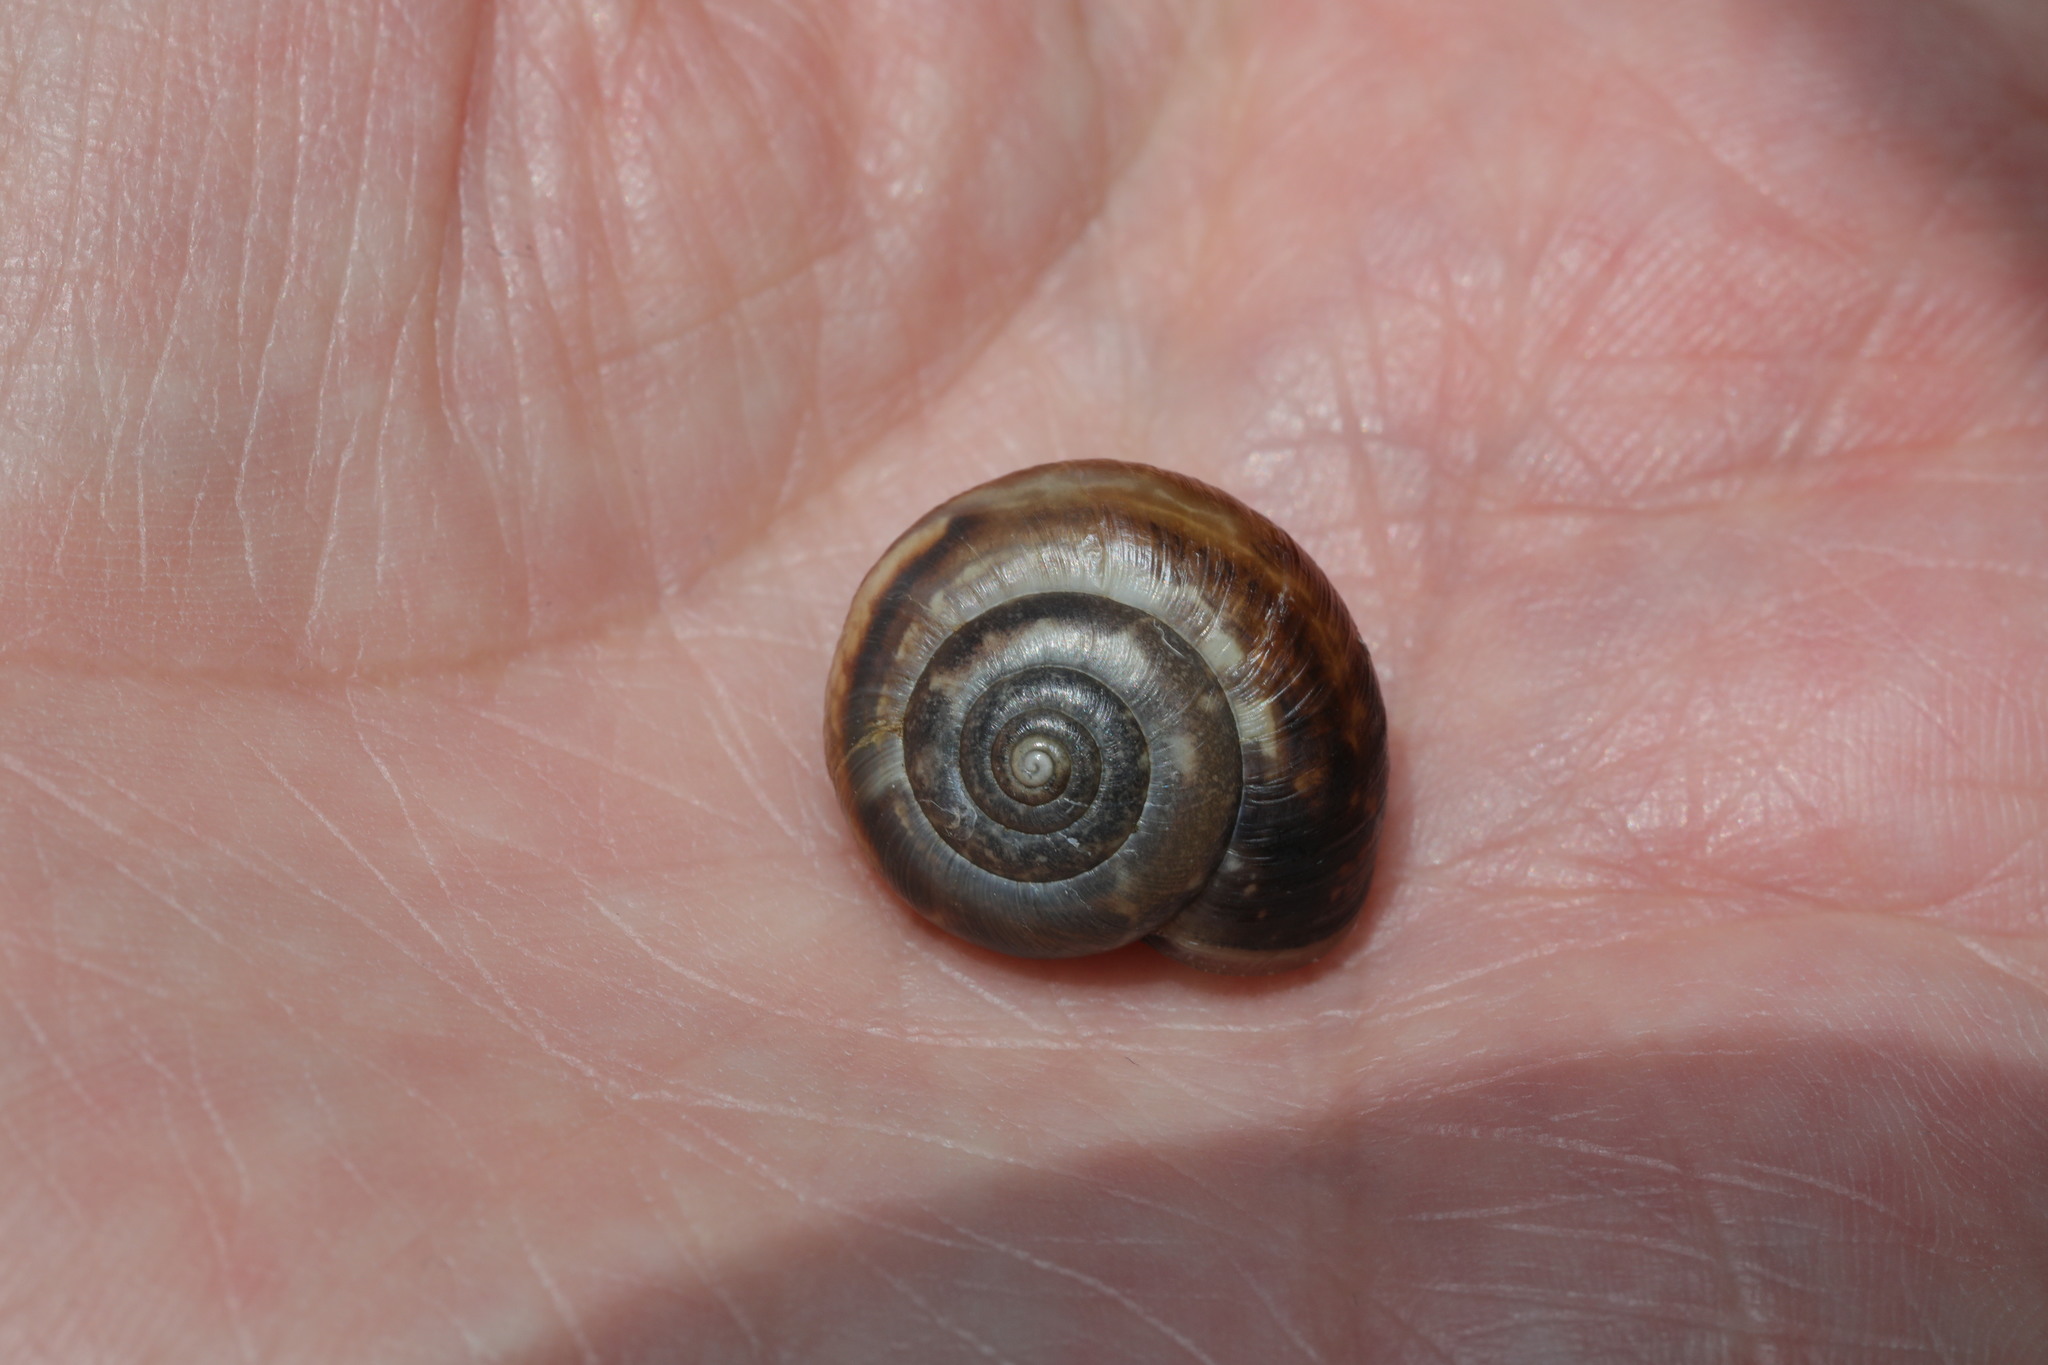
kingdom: Animalia
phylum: Mollusca
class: Gastropoda
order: Stylommatophora
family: Hygromiidae
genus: Monacha
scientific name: Monacha cantiana
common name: Kentish snail
